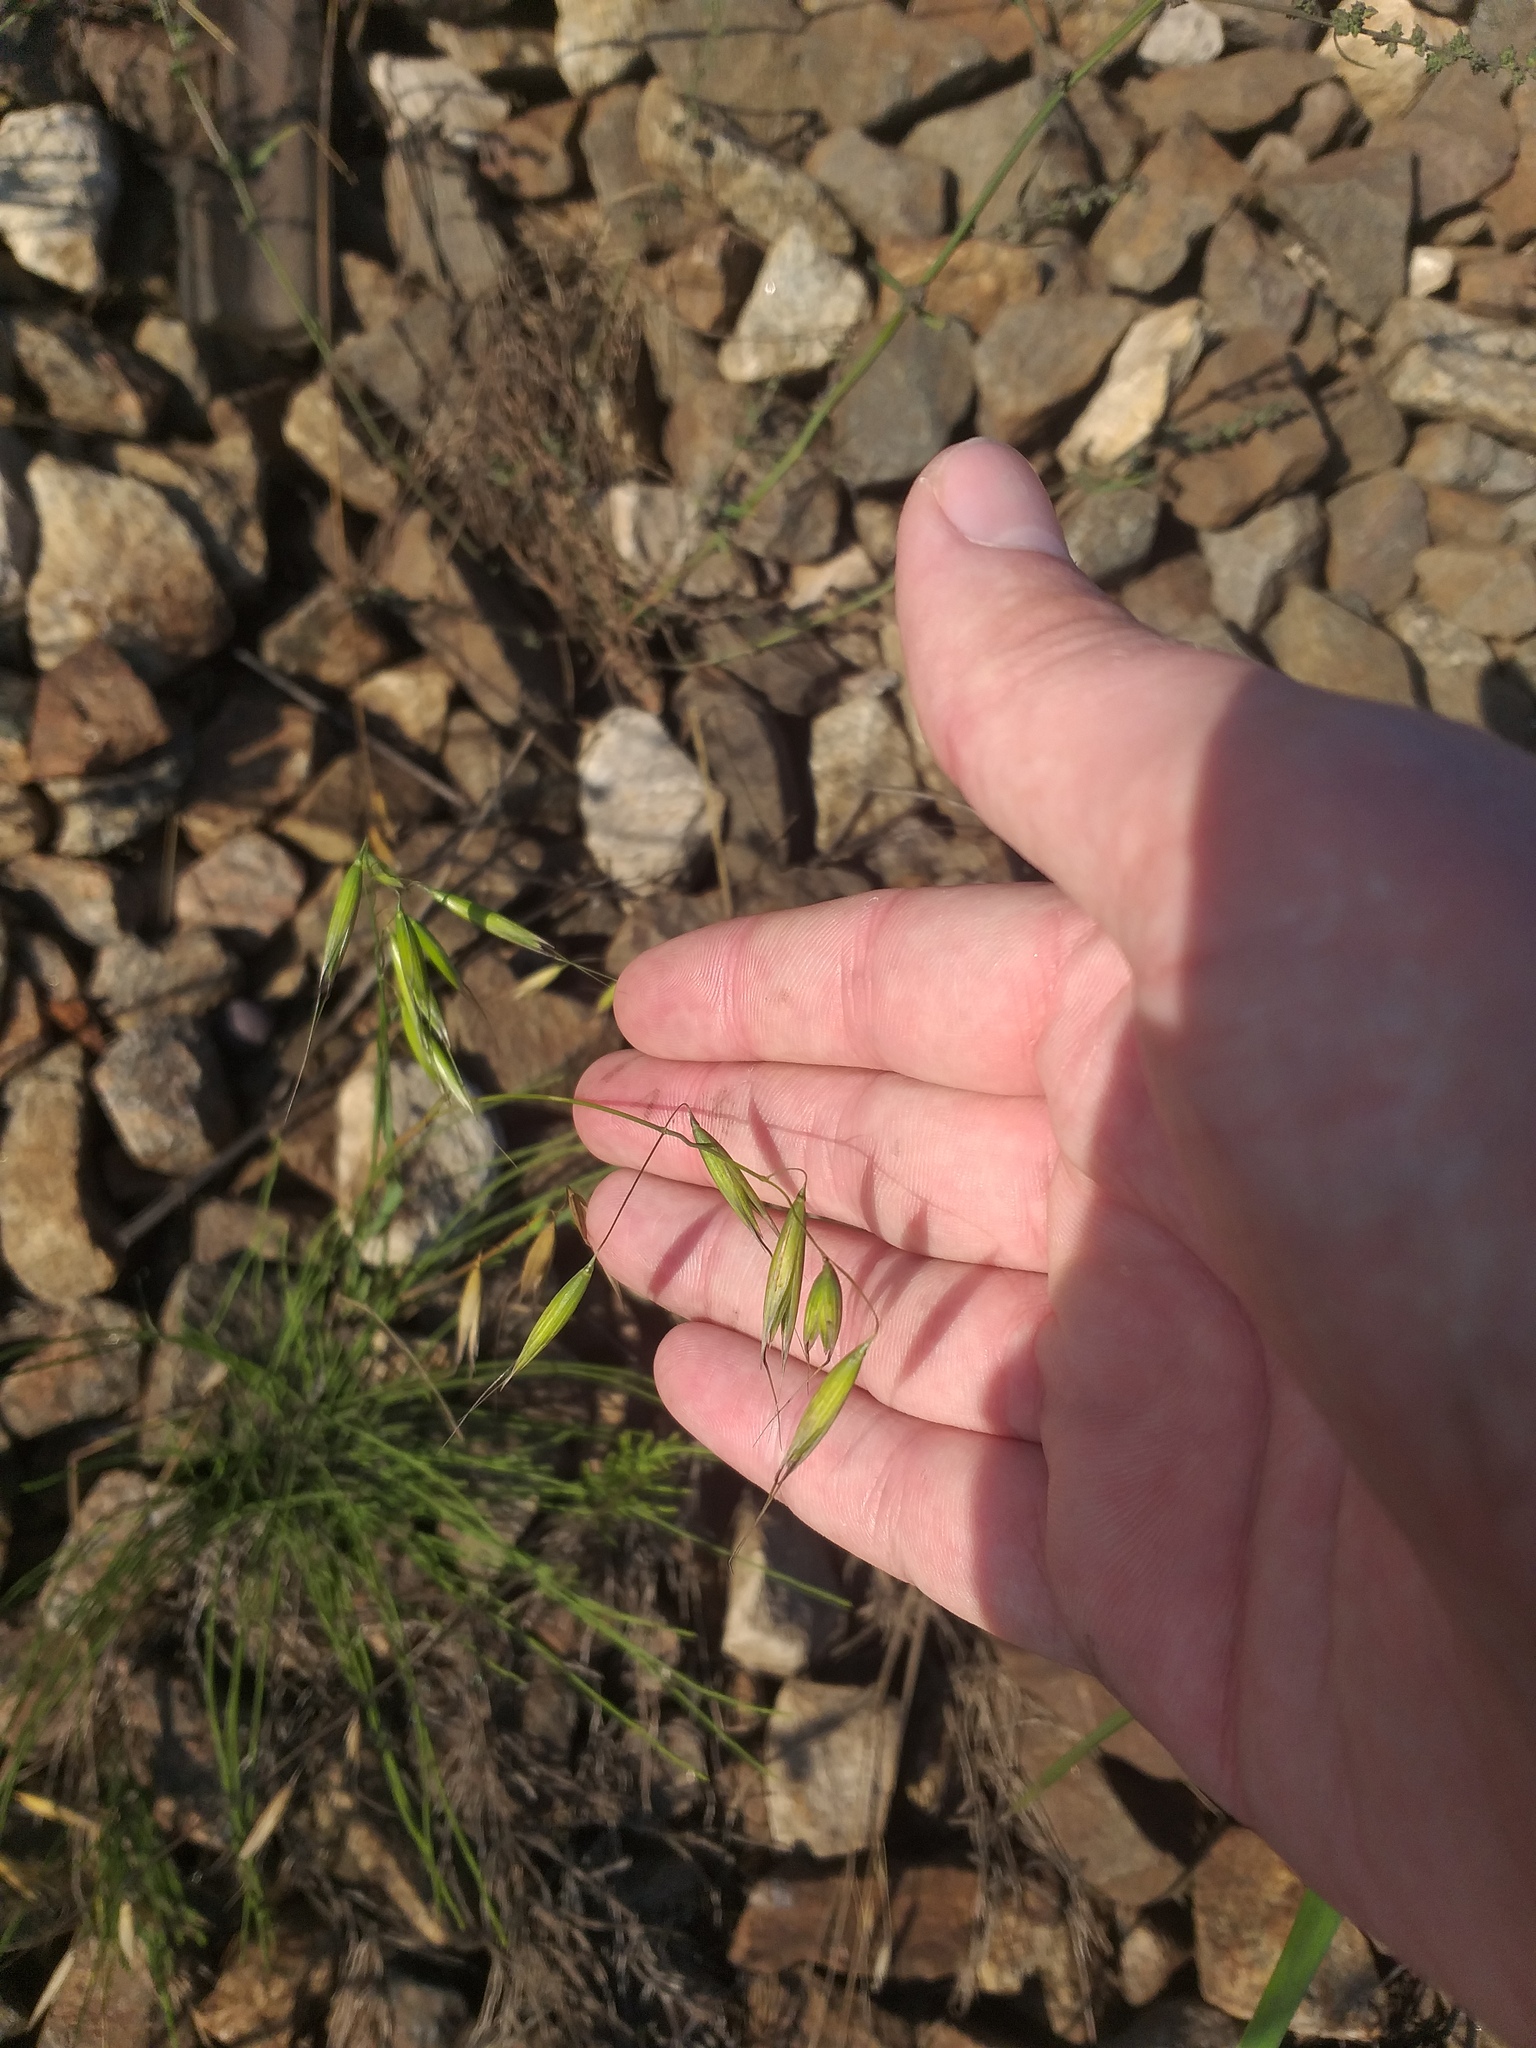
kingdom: Plantae
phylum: Tracheophyta
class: Liliopsida
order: Poales
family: Poaceae
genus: Avena
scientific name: Avena fatua
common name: Wild oat
